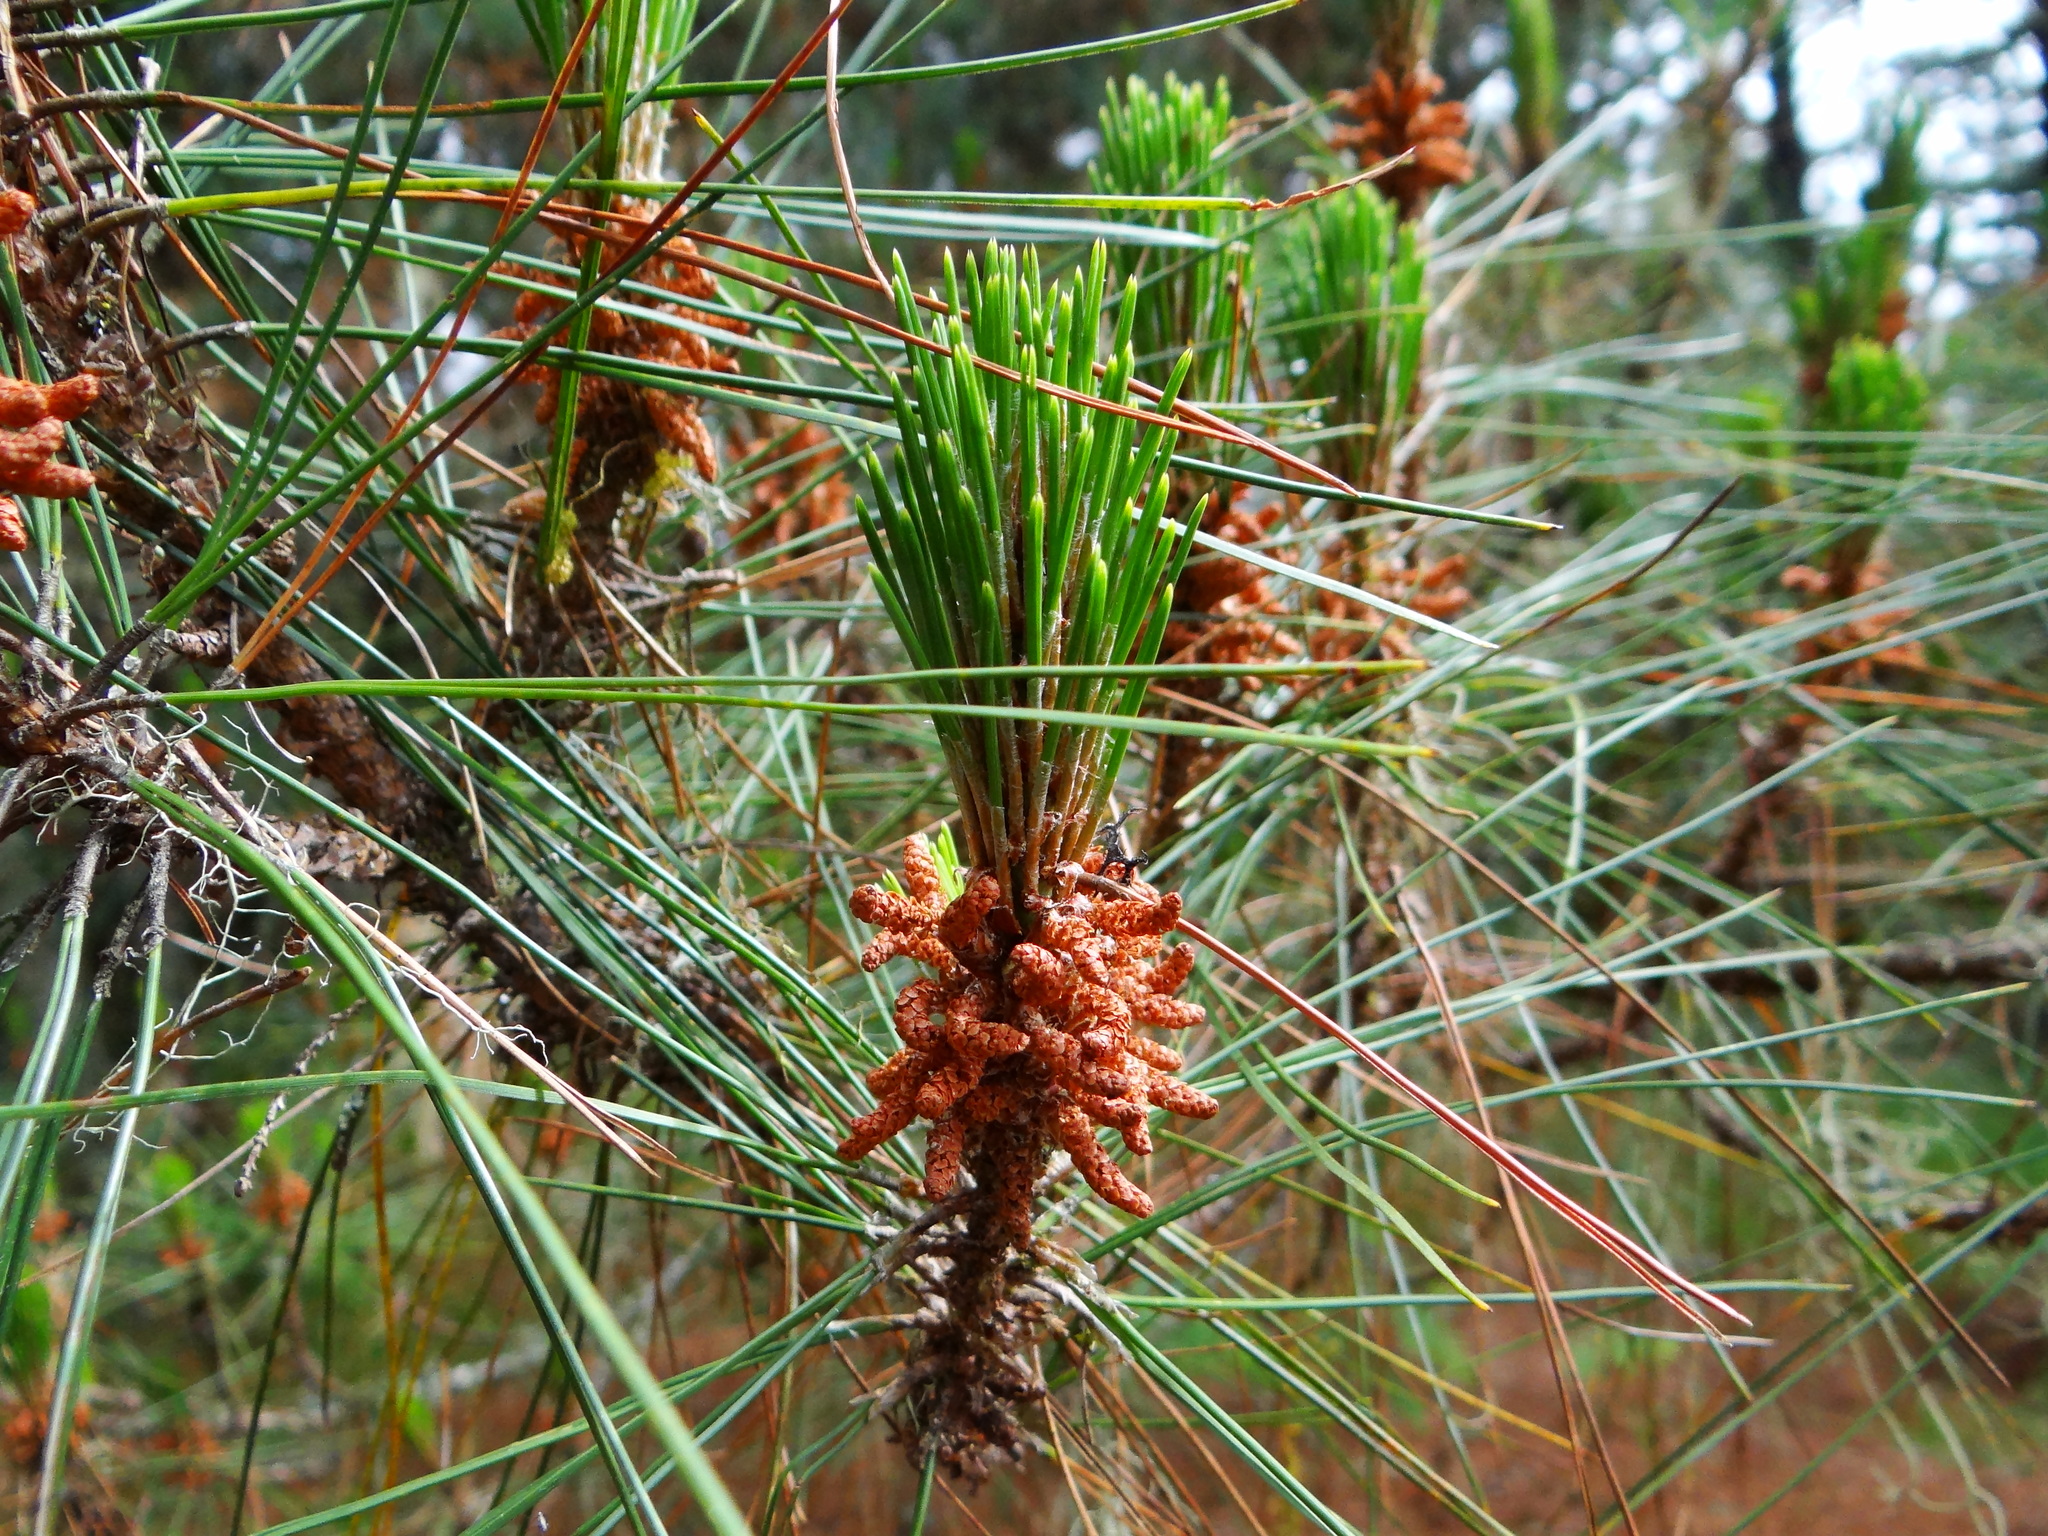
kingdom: Plantae
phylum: Tracheophyta
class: Pinopsida
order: Pinales
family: Pinaceae
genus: Pinus
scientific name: Pinus taiwanensis
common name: Formosa pine
